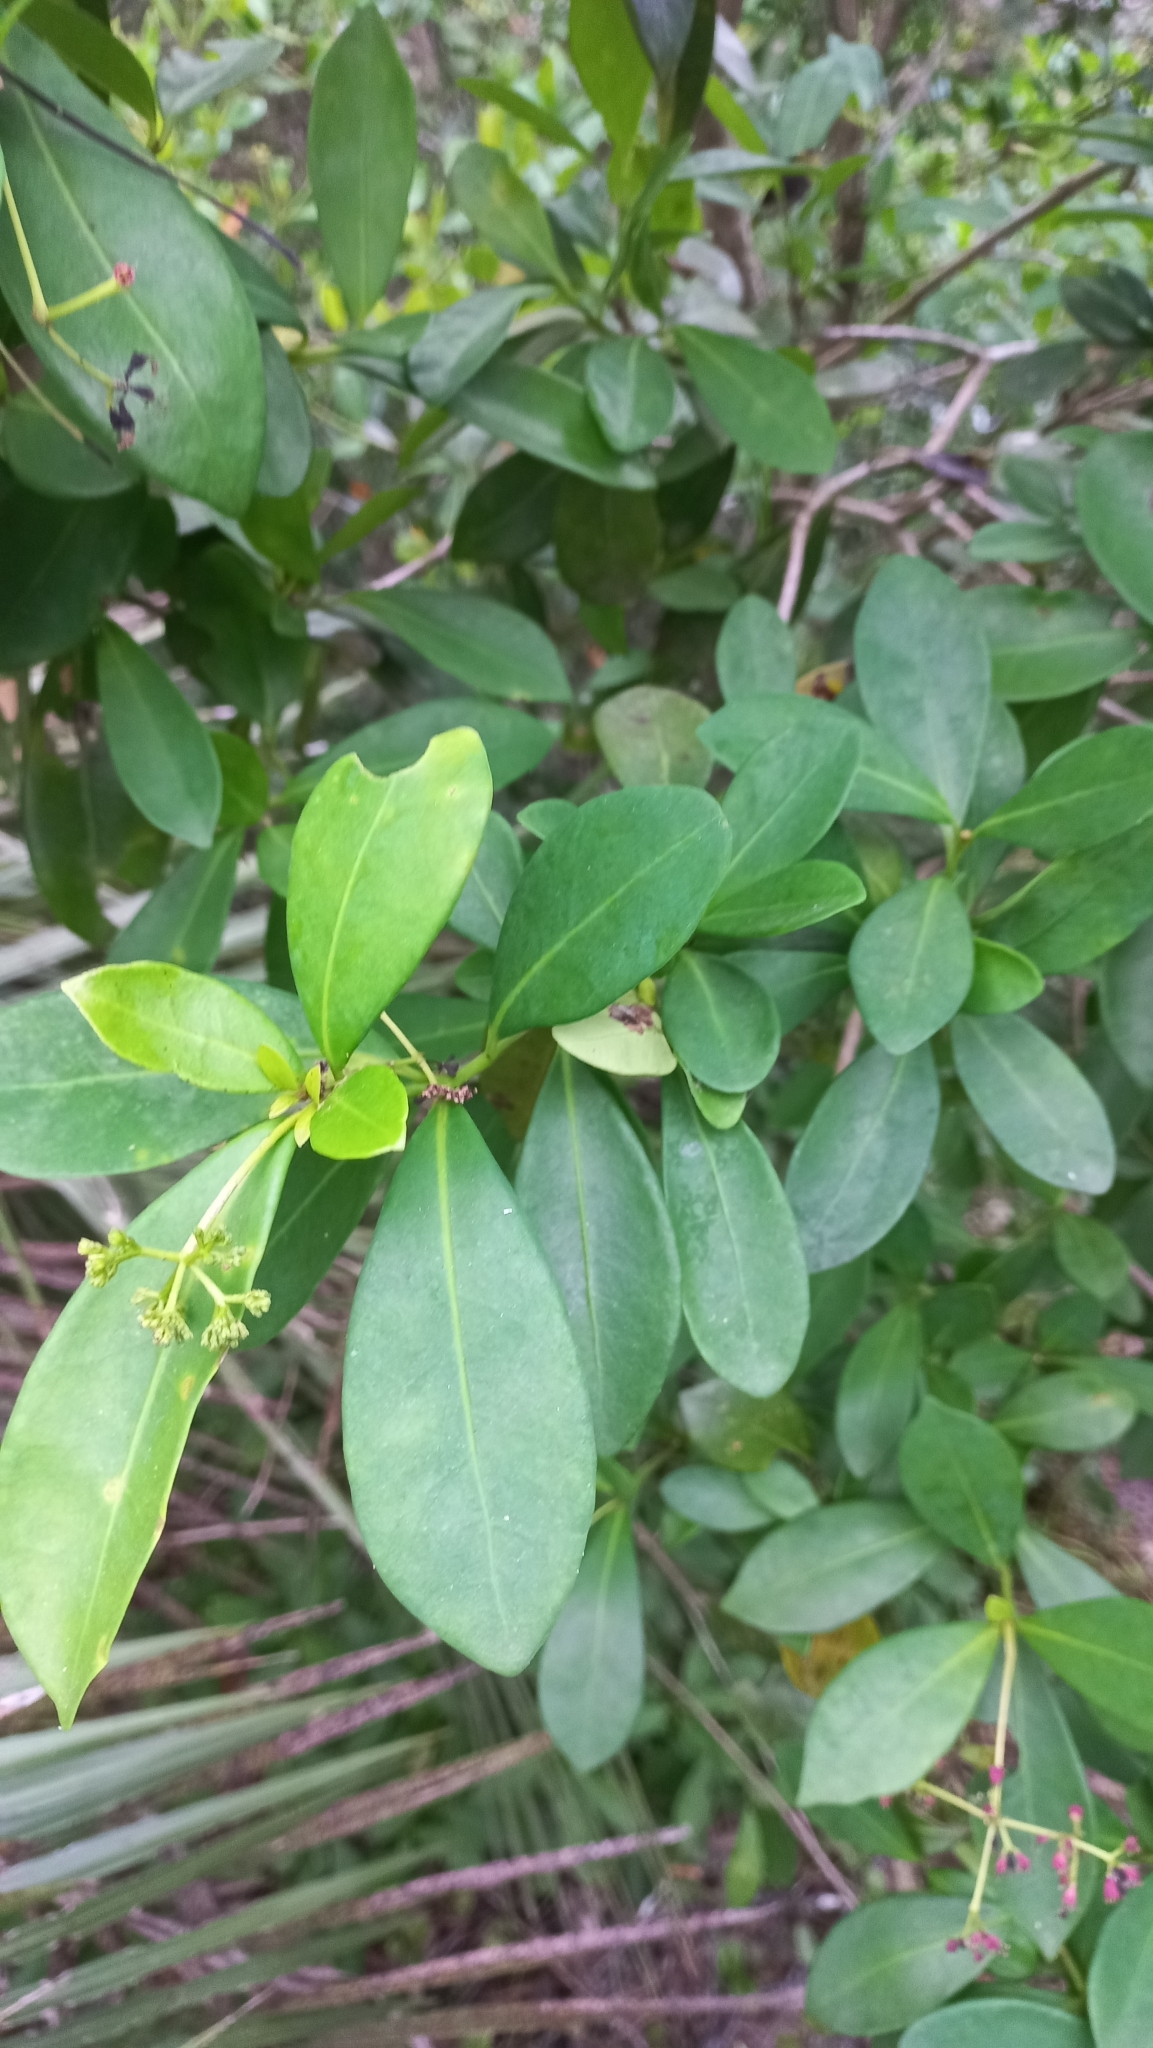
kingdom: Plantae
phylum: Tracheophyta
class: Magnoliopsida
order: Caryophyllales
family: Nyctaginaceae
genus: Guapira
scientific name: Guapira opposita
